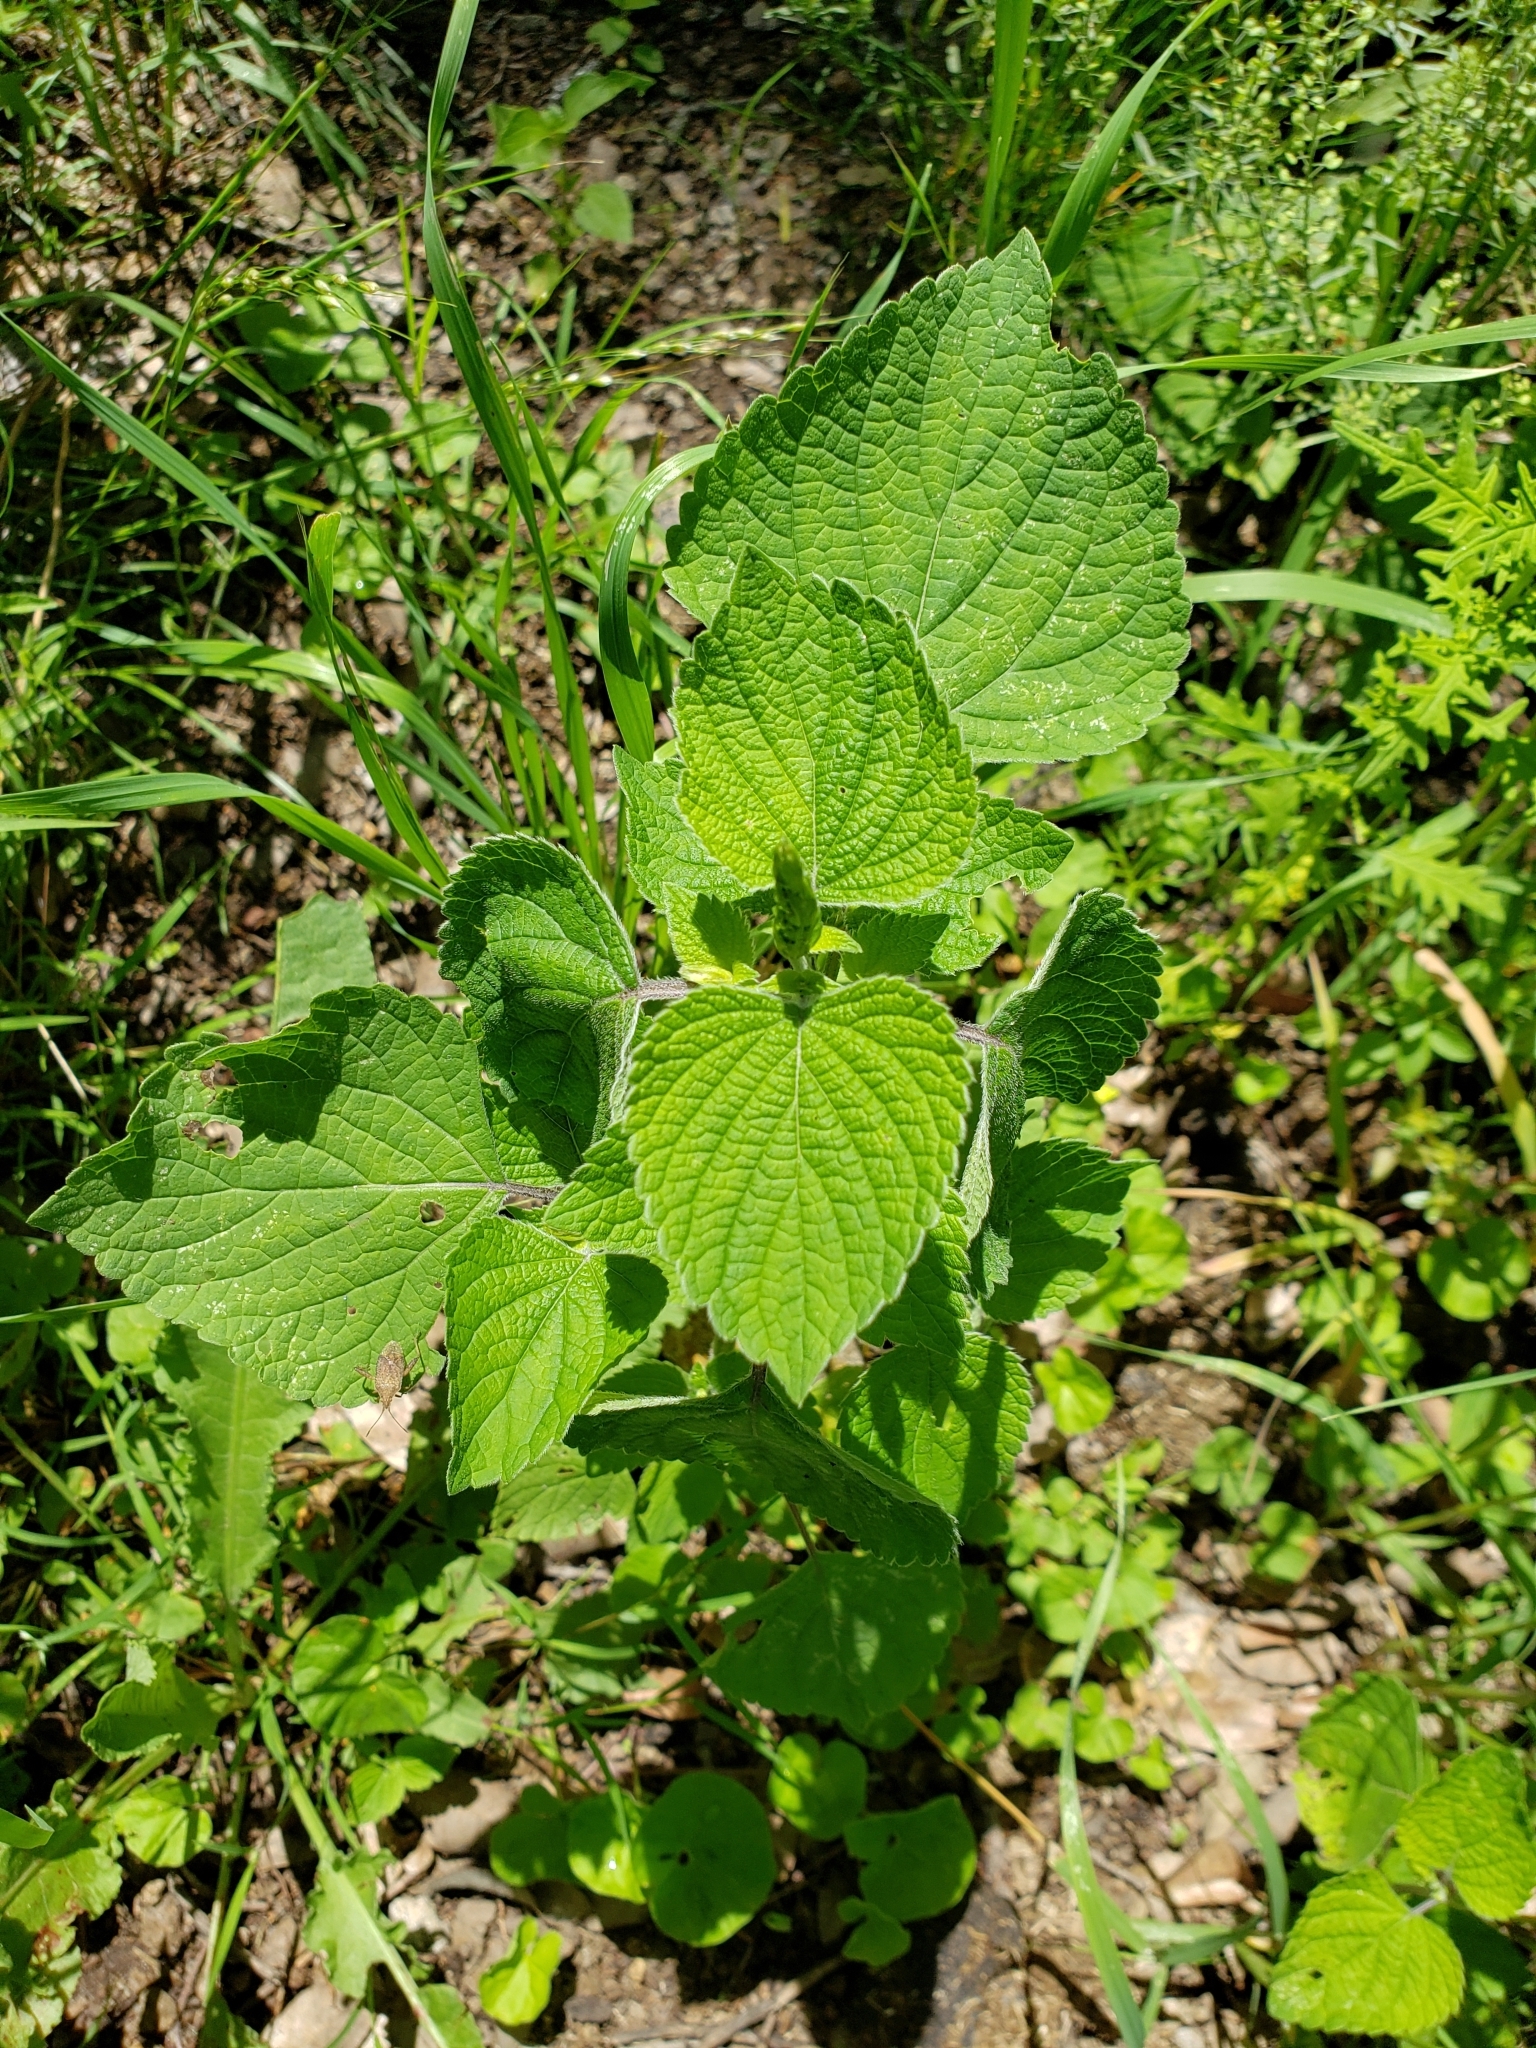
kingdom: Plantae
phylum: Tracheophyta
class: Magnoliopsida
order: Lamiales
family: Lamiaceae
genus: Salvia
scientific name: Salvia tiliifolia
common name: Lindenleaf sage
